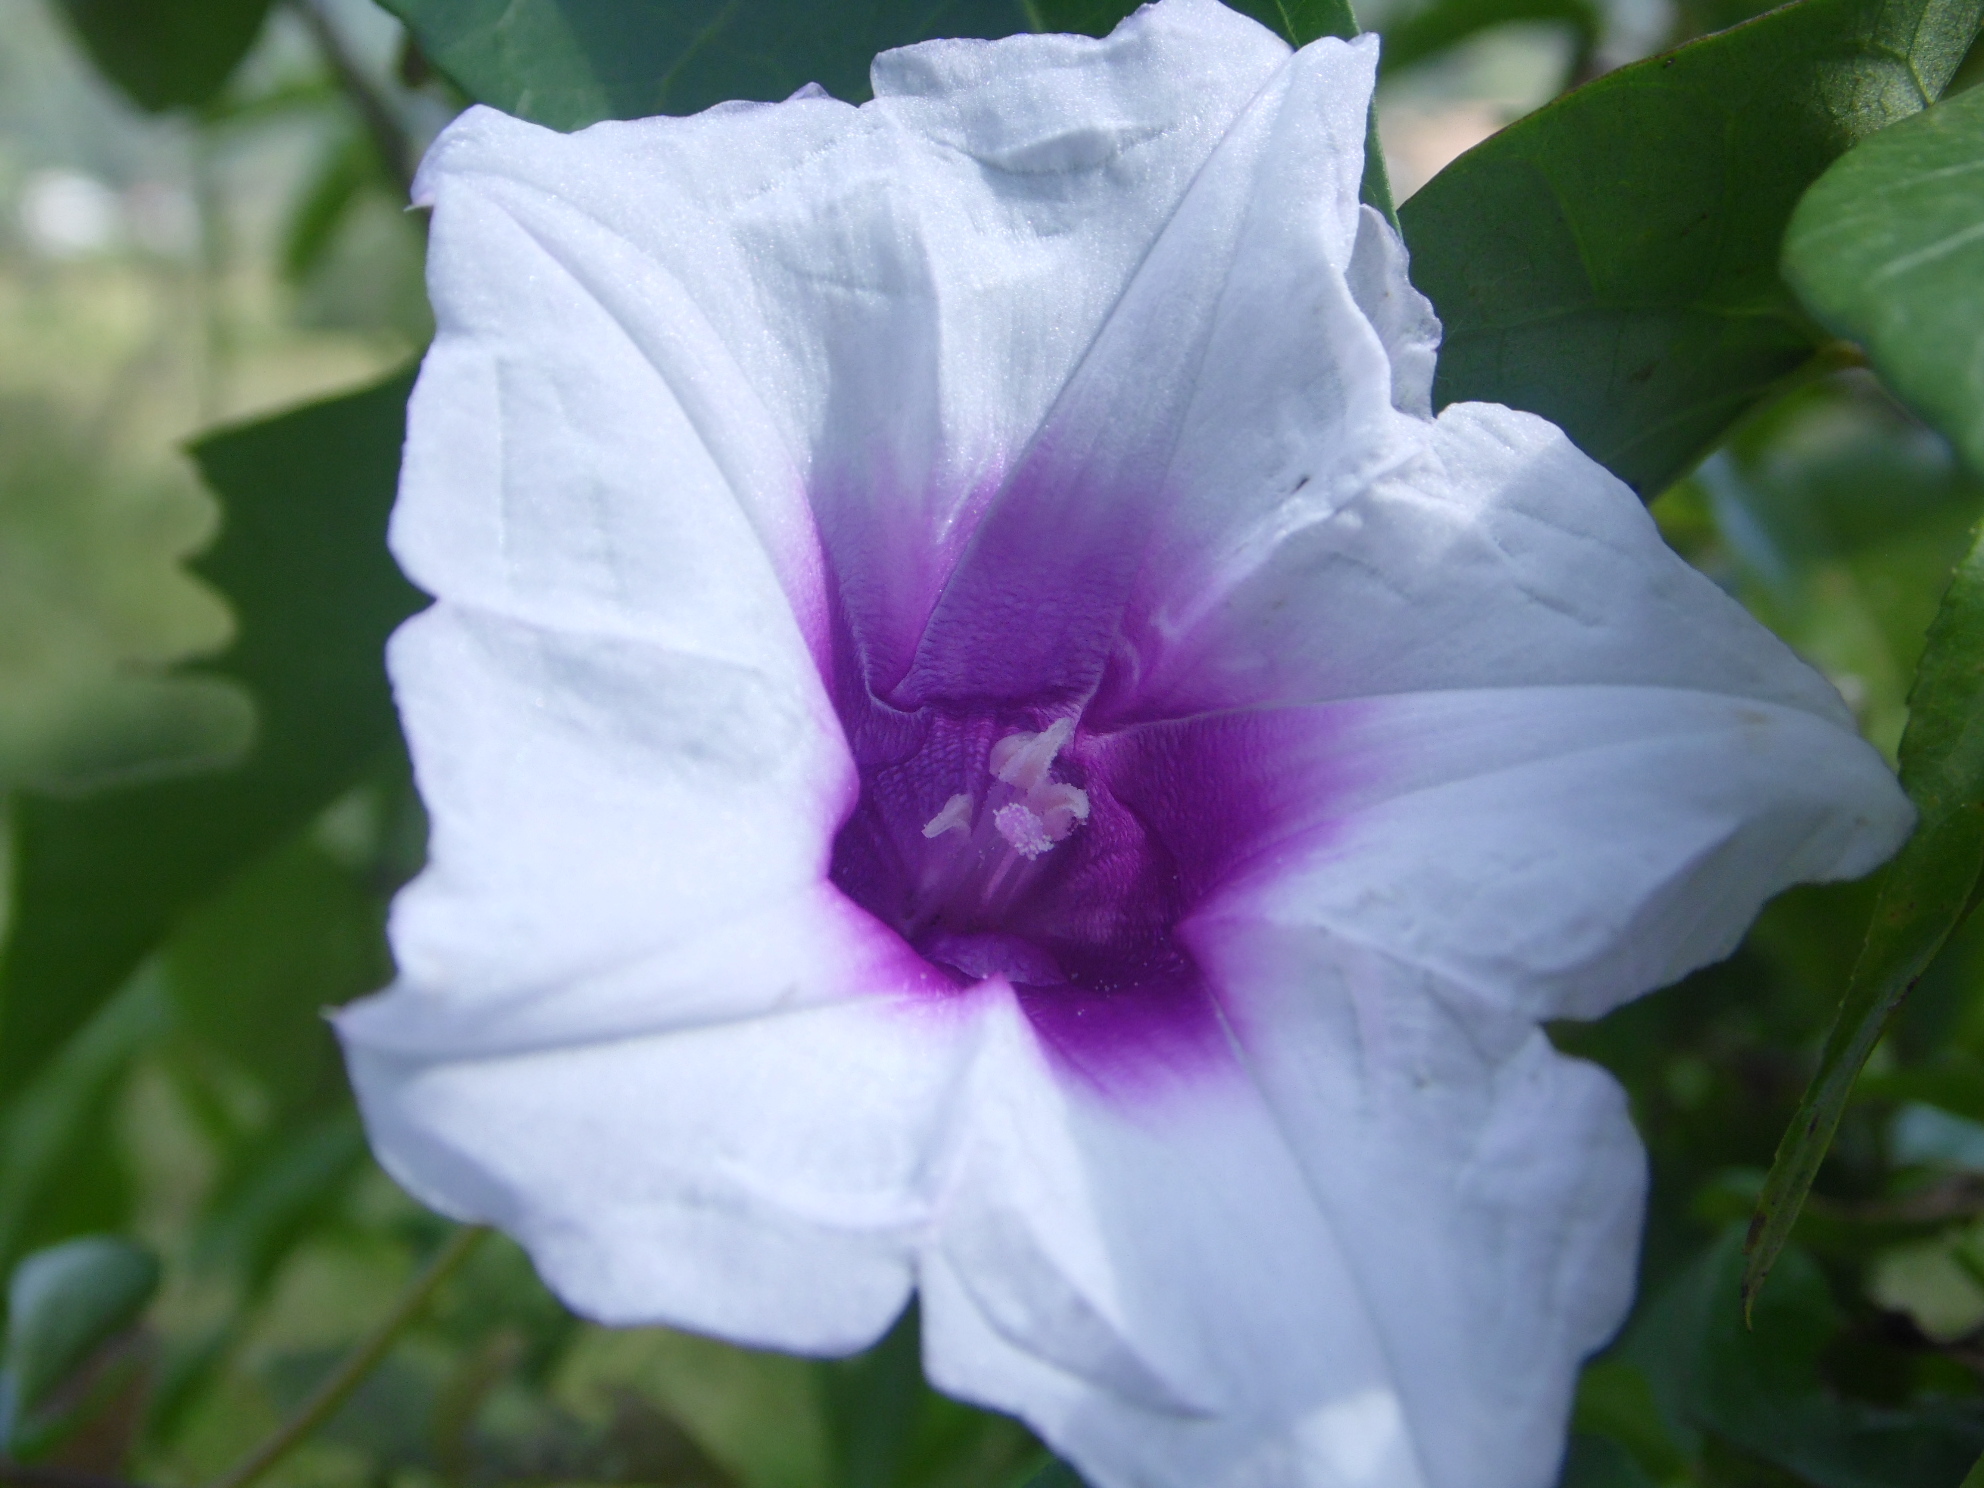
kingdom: Plantae
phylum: Tracheophyta
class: Magnoliopsida
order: Solanales
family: Convolvulaceae
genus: Ipomoea
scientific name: Ipomoea tiliacea
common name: Wild potato vine
